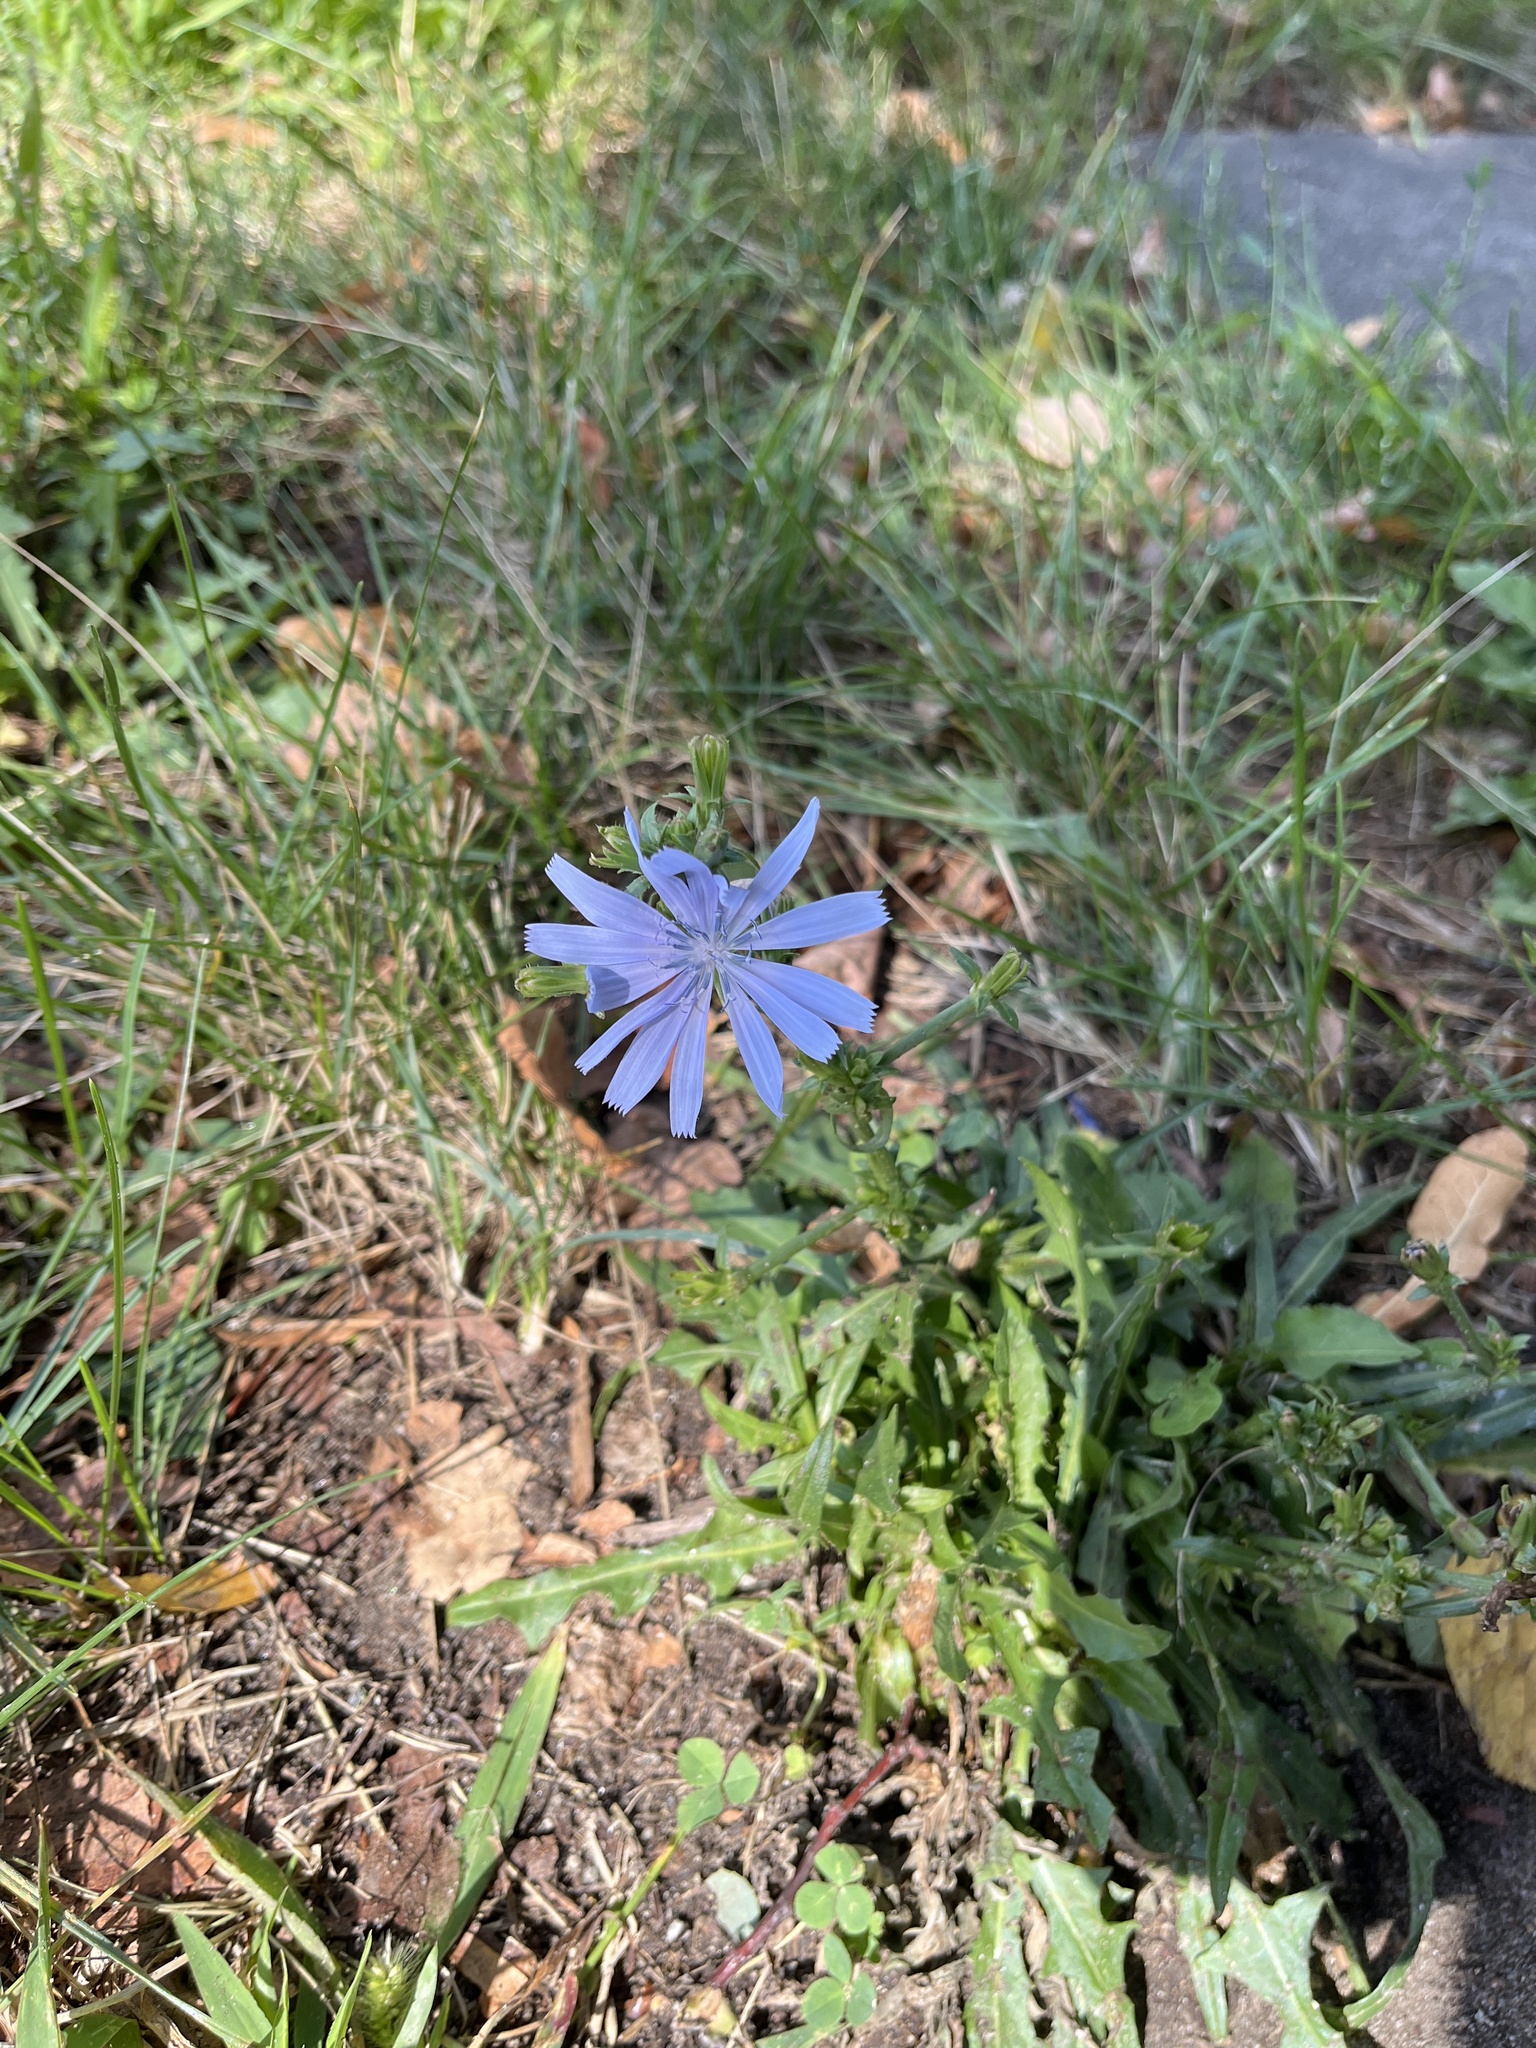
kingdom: Plantae
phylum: Tracheophyta
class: Magnoliopsida
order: Asterales
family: Asteraceae
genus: Cichorium
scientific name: Cichorium intybus
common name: Chicory
